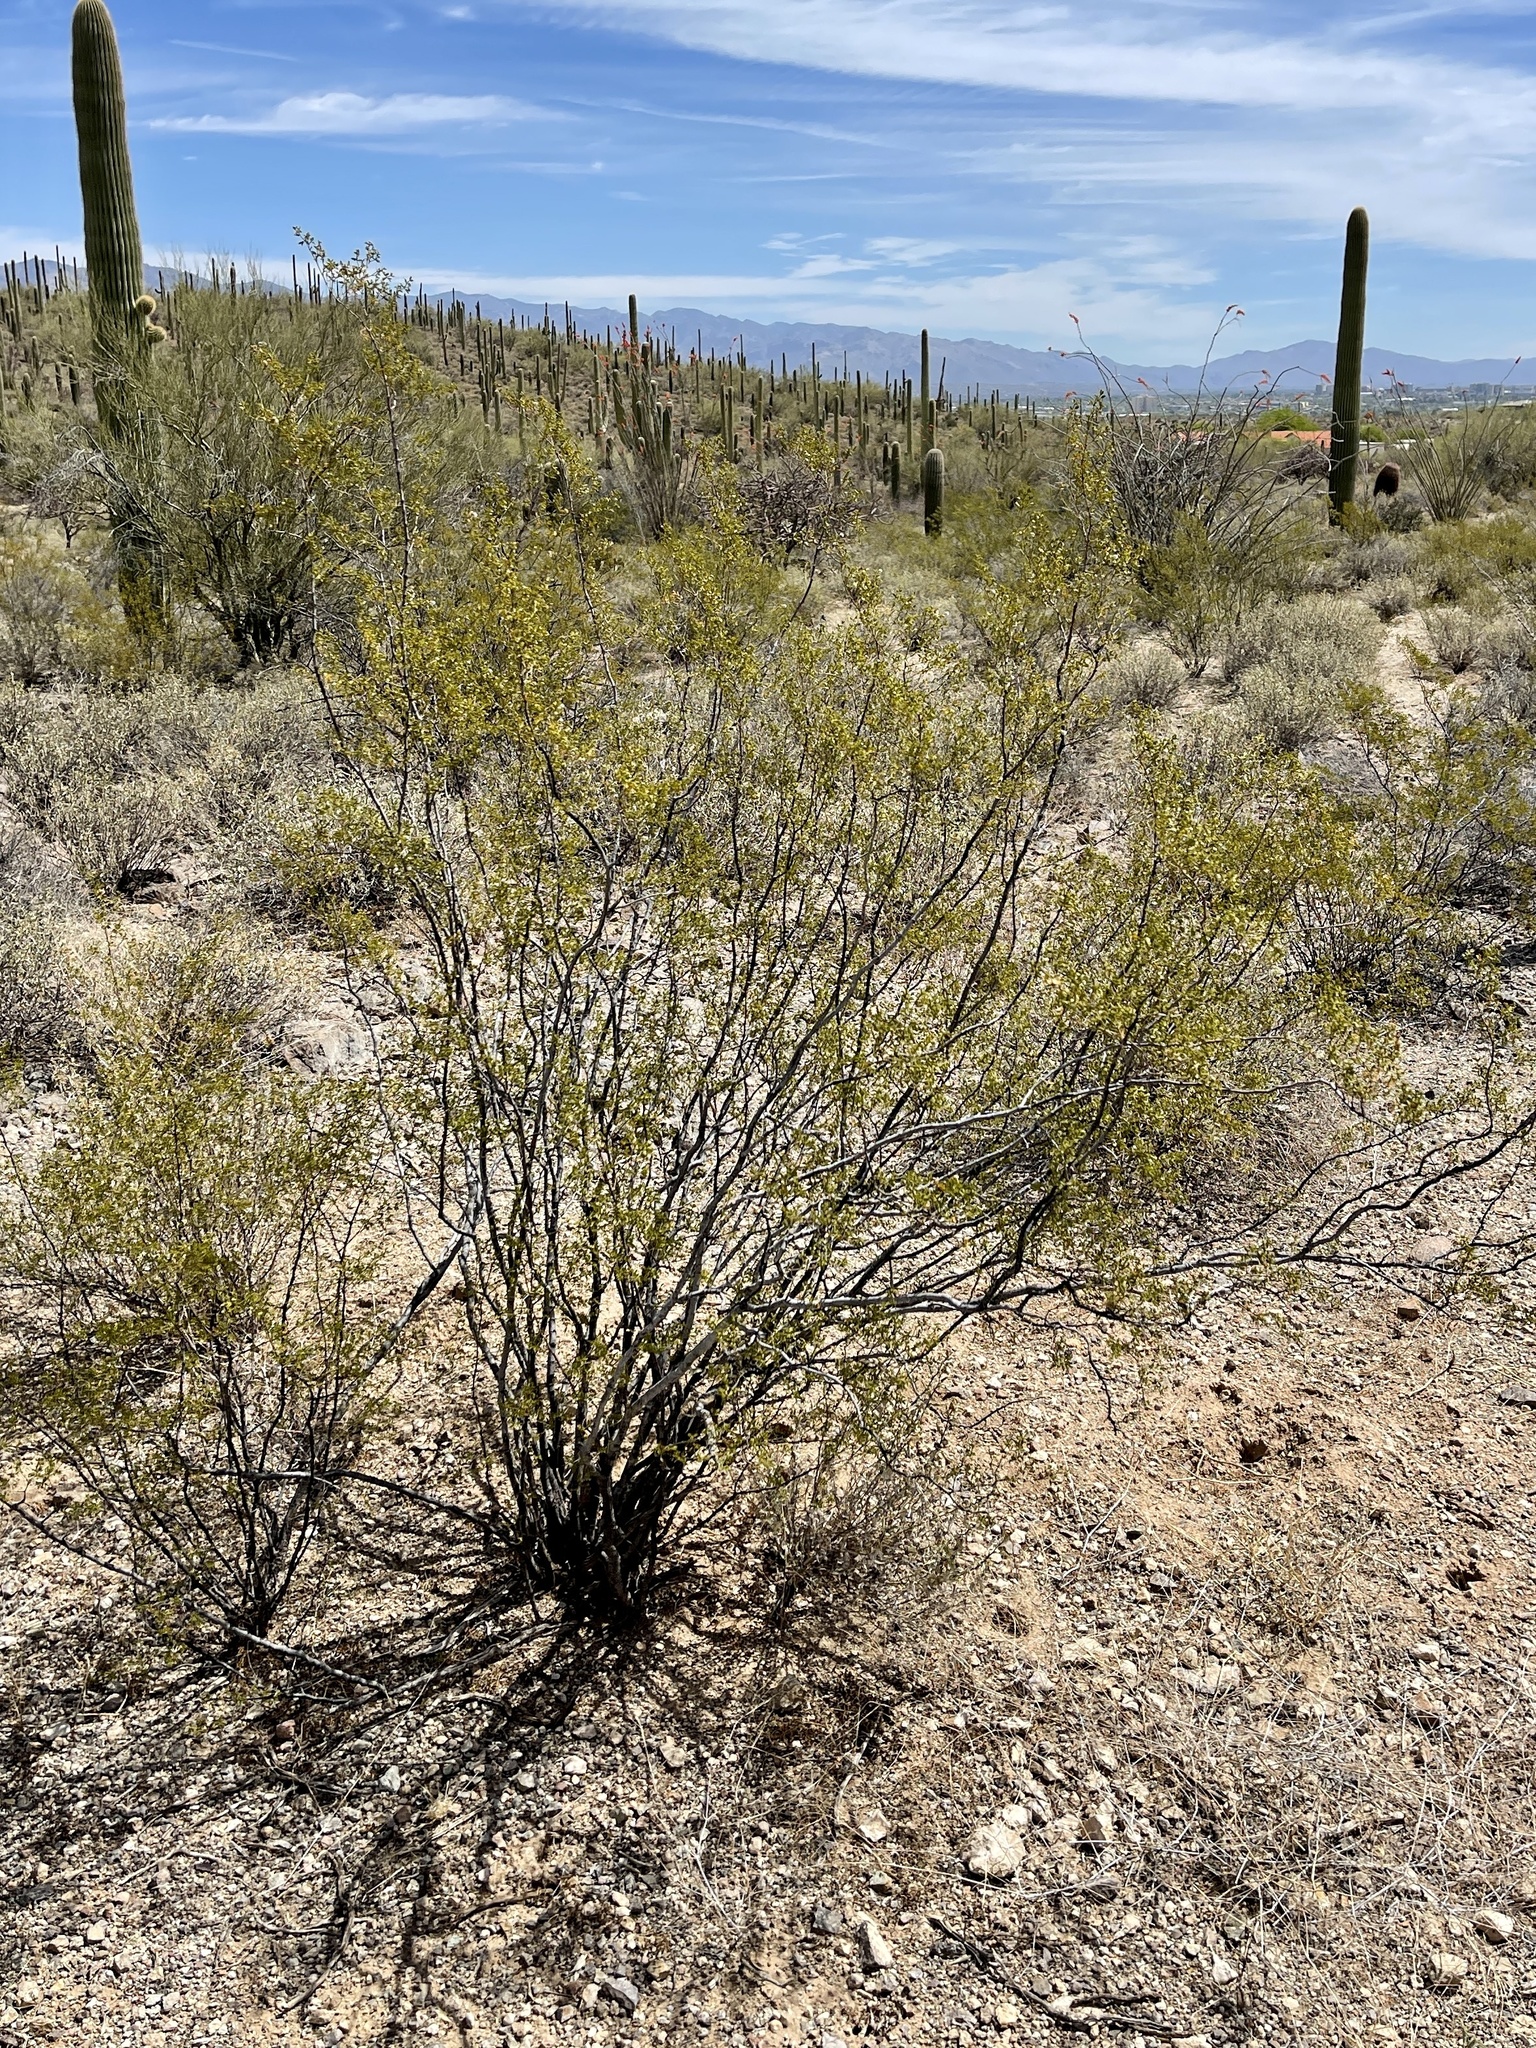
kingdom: Plantae
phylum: Tracheophyta
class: Magnoliopsida
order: Zygophyllales
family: Zygophyllaceae
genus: Larrea
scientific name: Larrea tridentata
